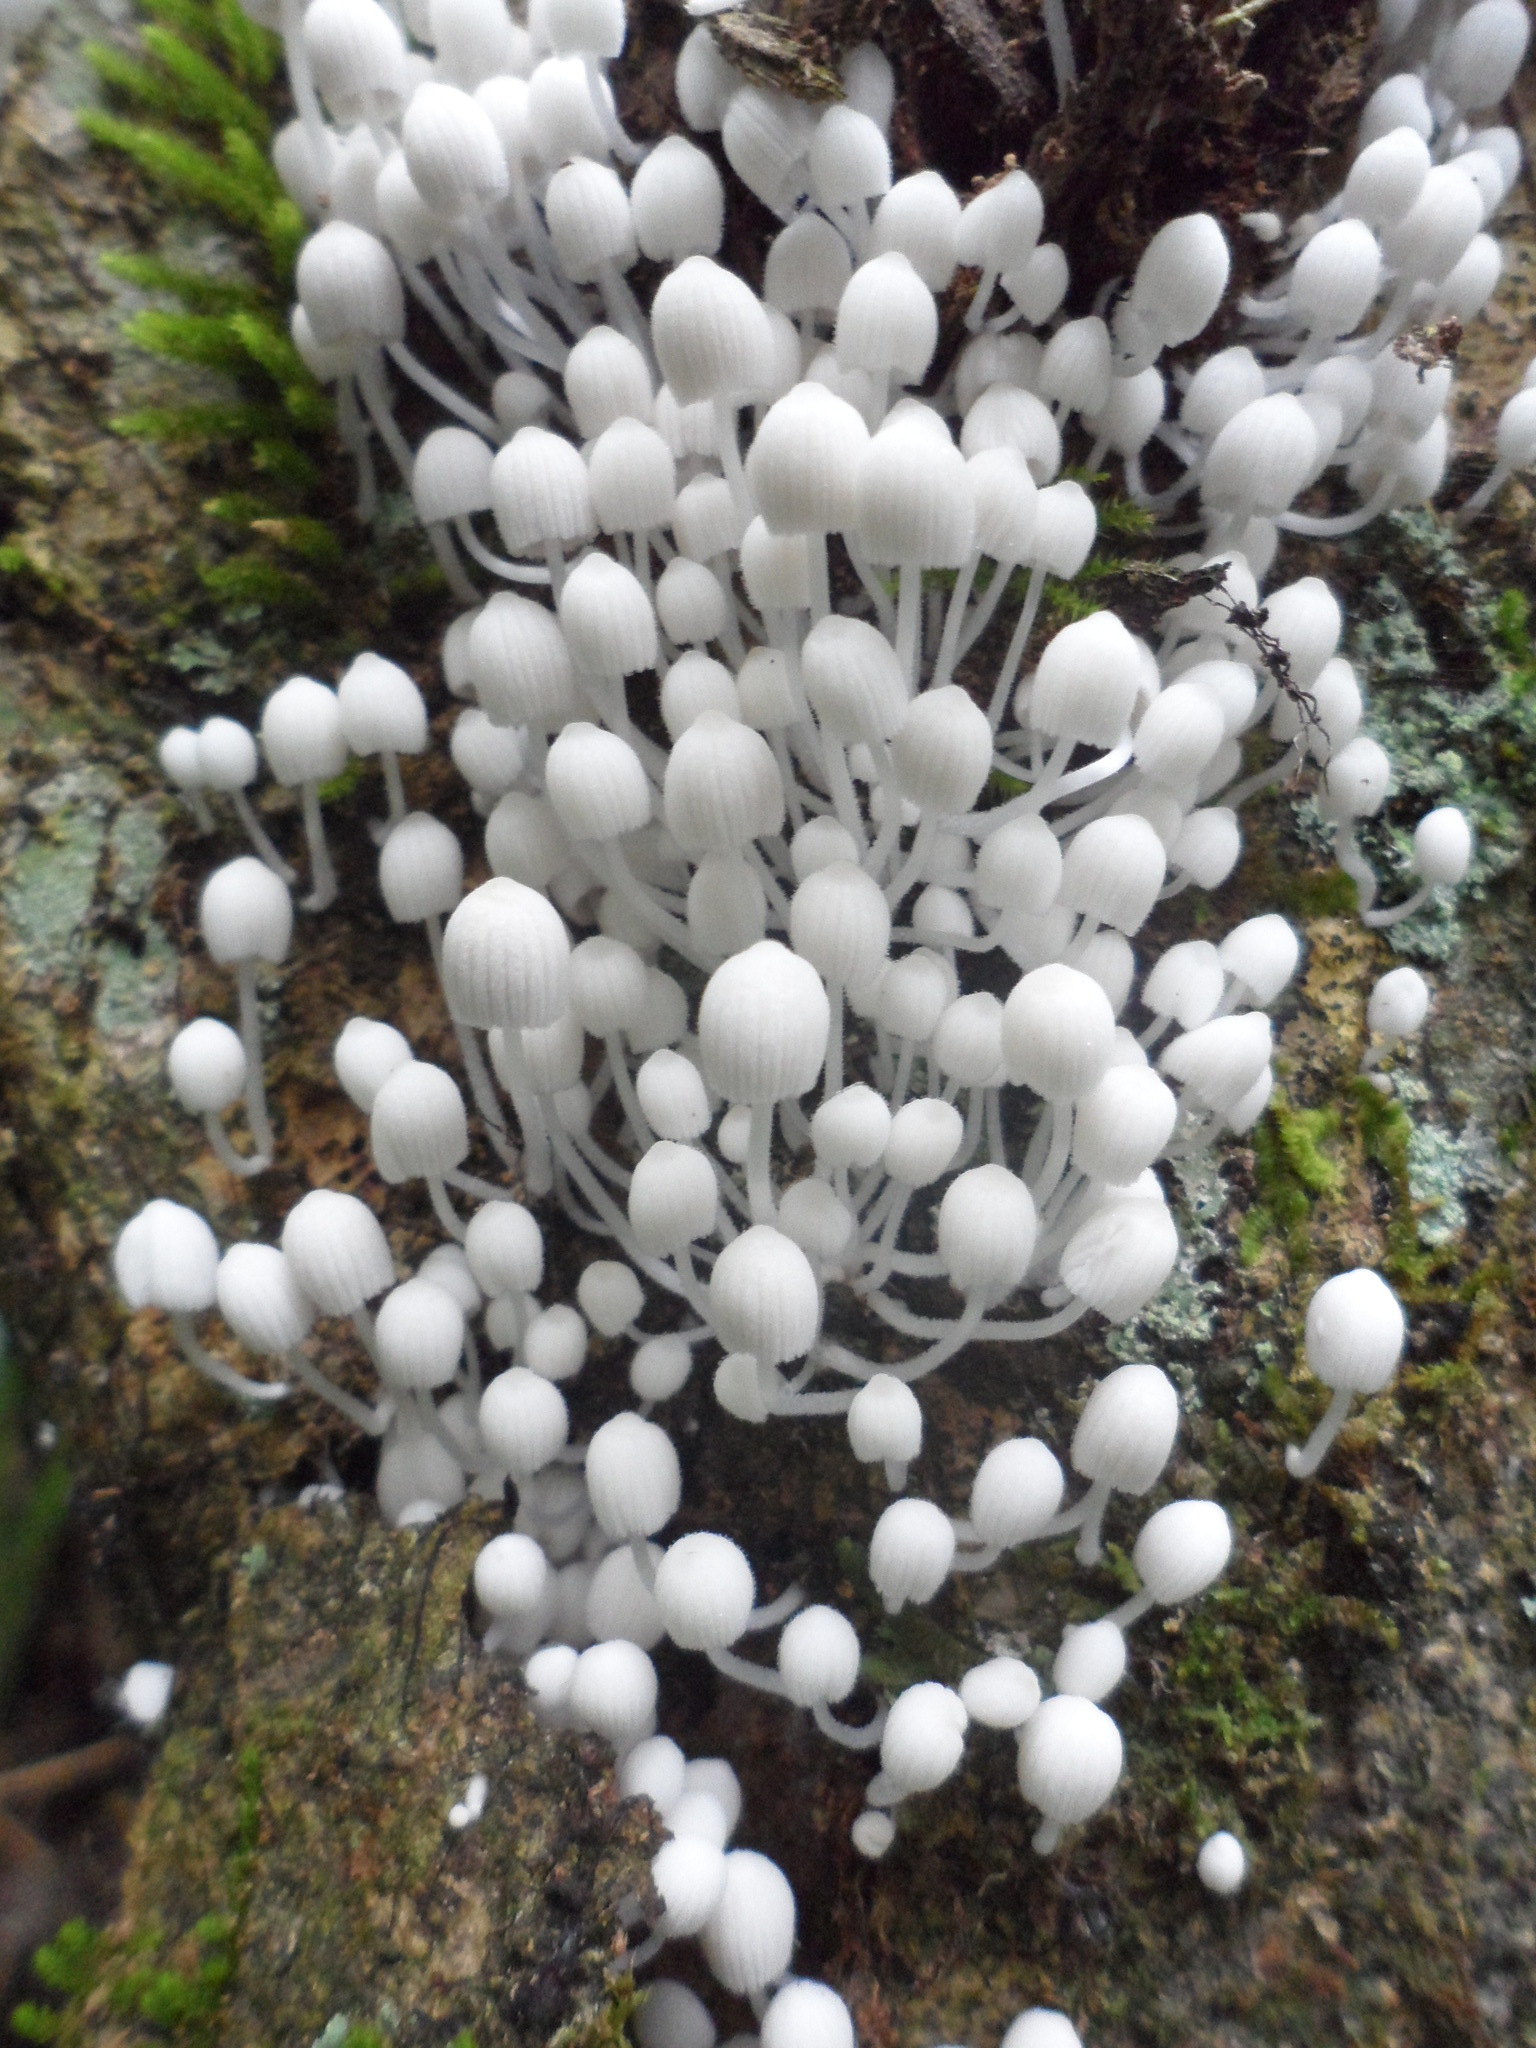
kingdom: Fungi
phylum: Basidiomycota
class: Agaricomycetes
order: Agaricales
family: Psathyrellaceae
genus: Coprinellus
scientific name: Coprinellus disseminatus
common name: Fairies' bonnets
